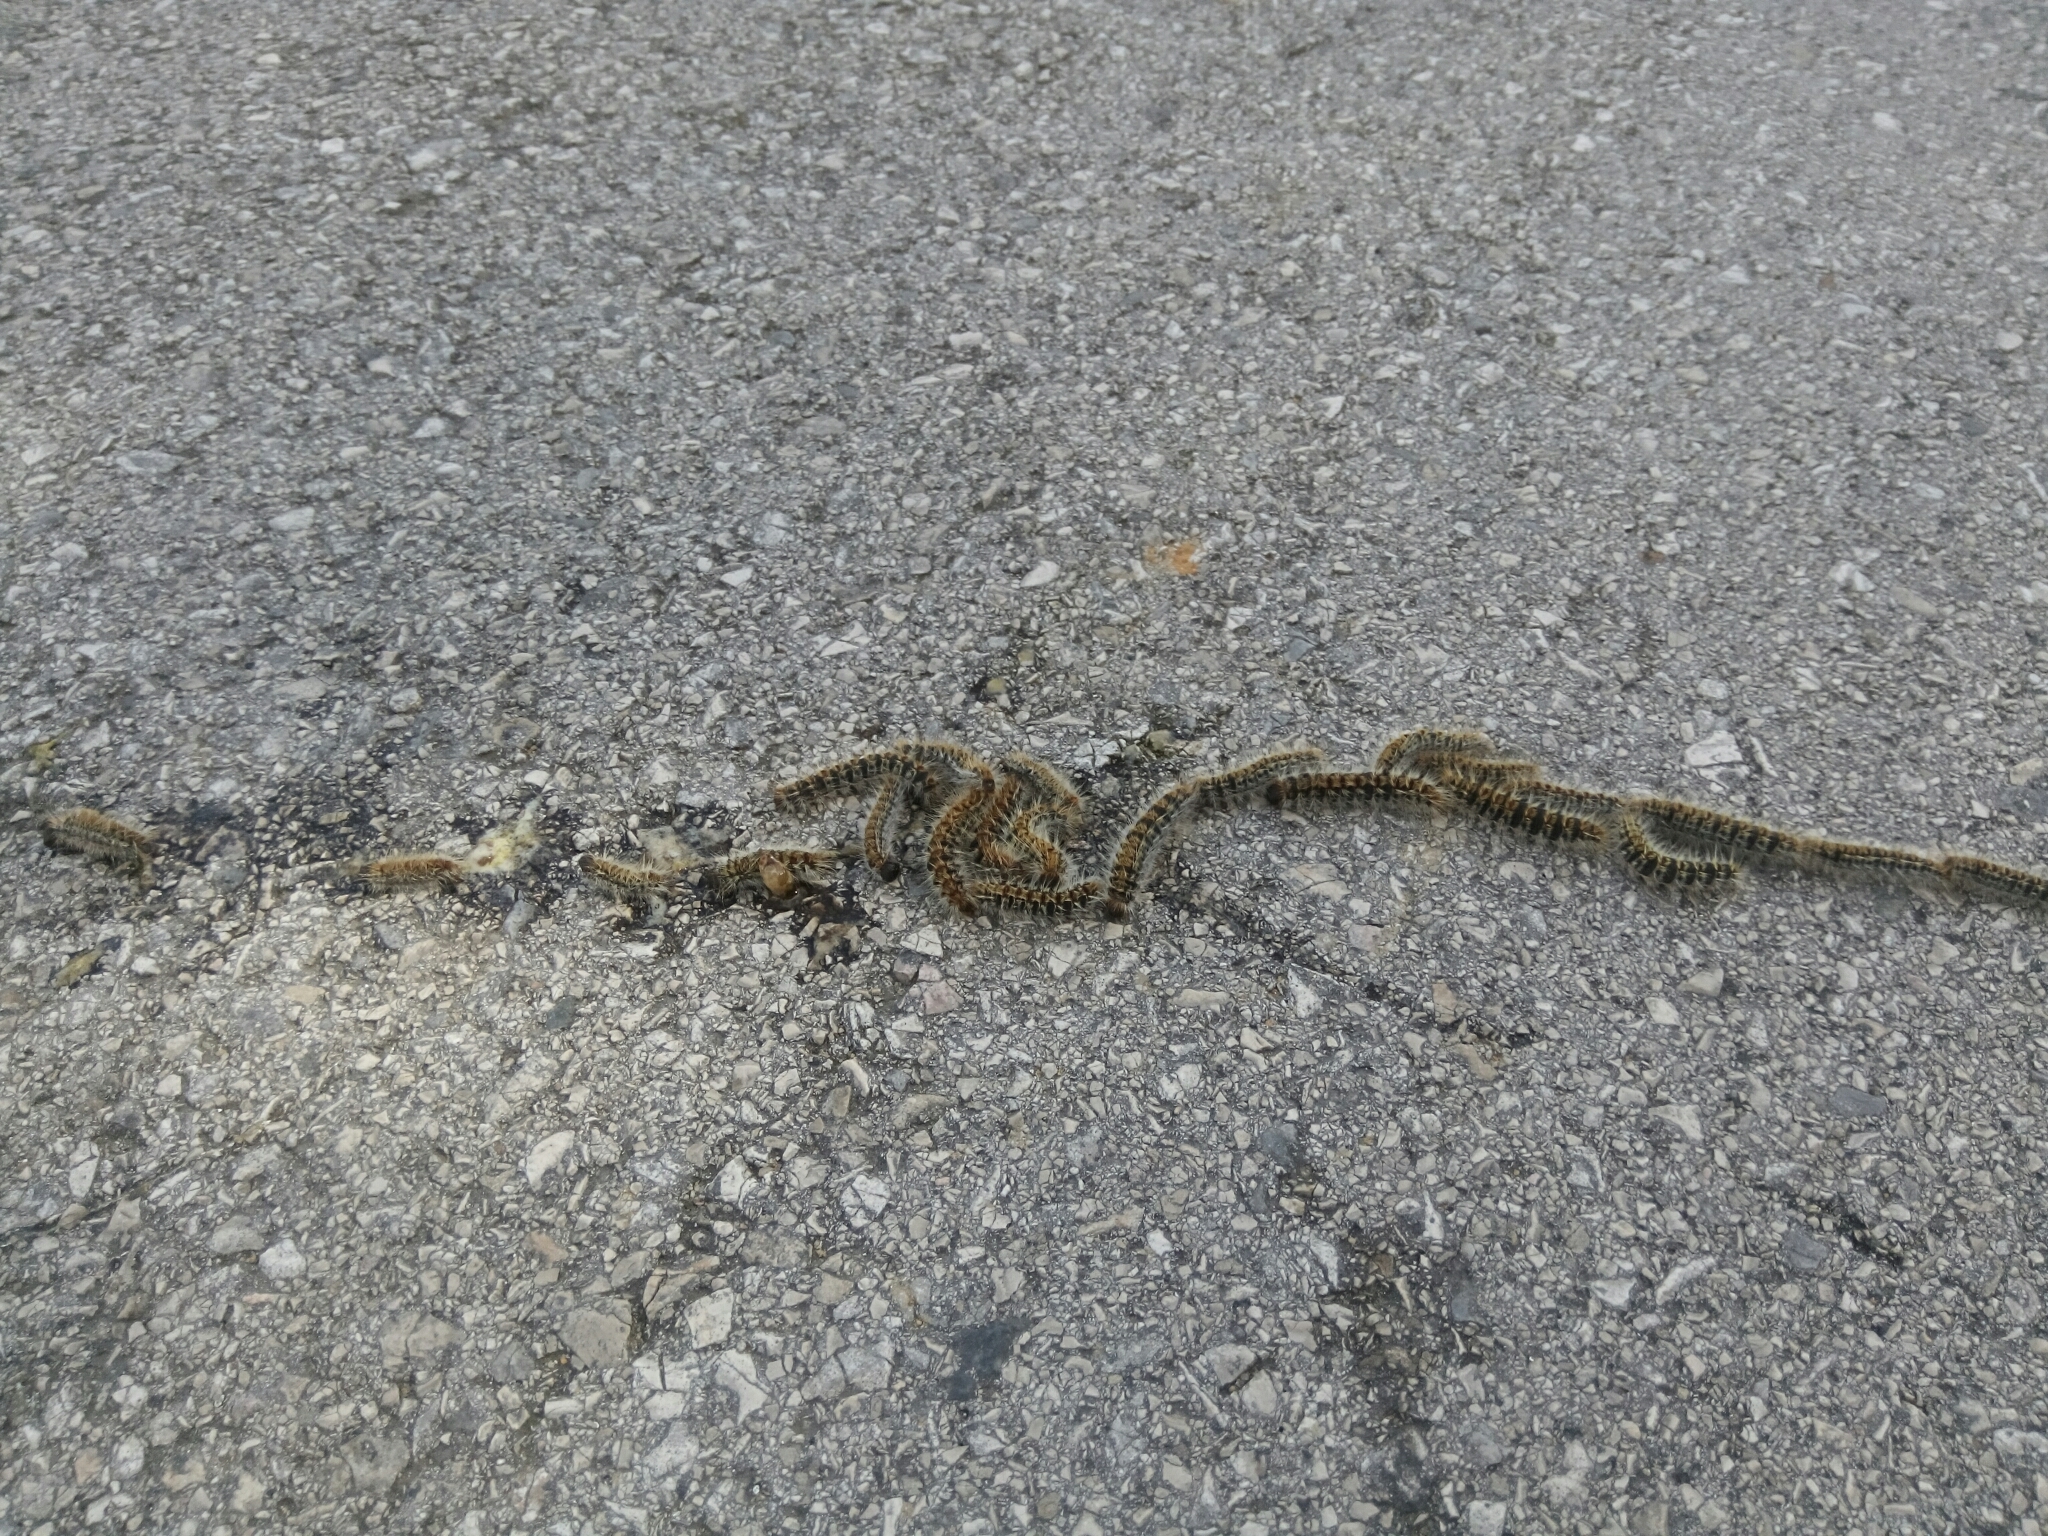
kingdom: Animalia
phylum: Arthropoda
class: Insecta
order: Lepidoptera
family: Notodontidae
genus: Thaumetopoea
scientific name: Thaumetopoea pityocampa
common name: Pine processionary
